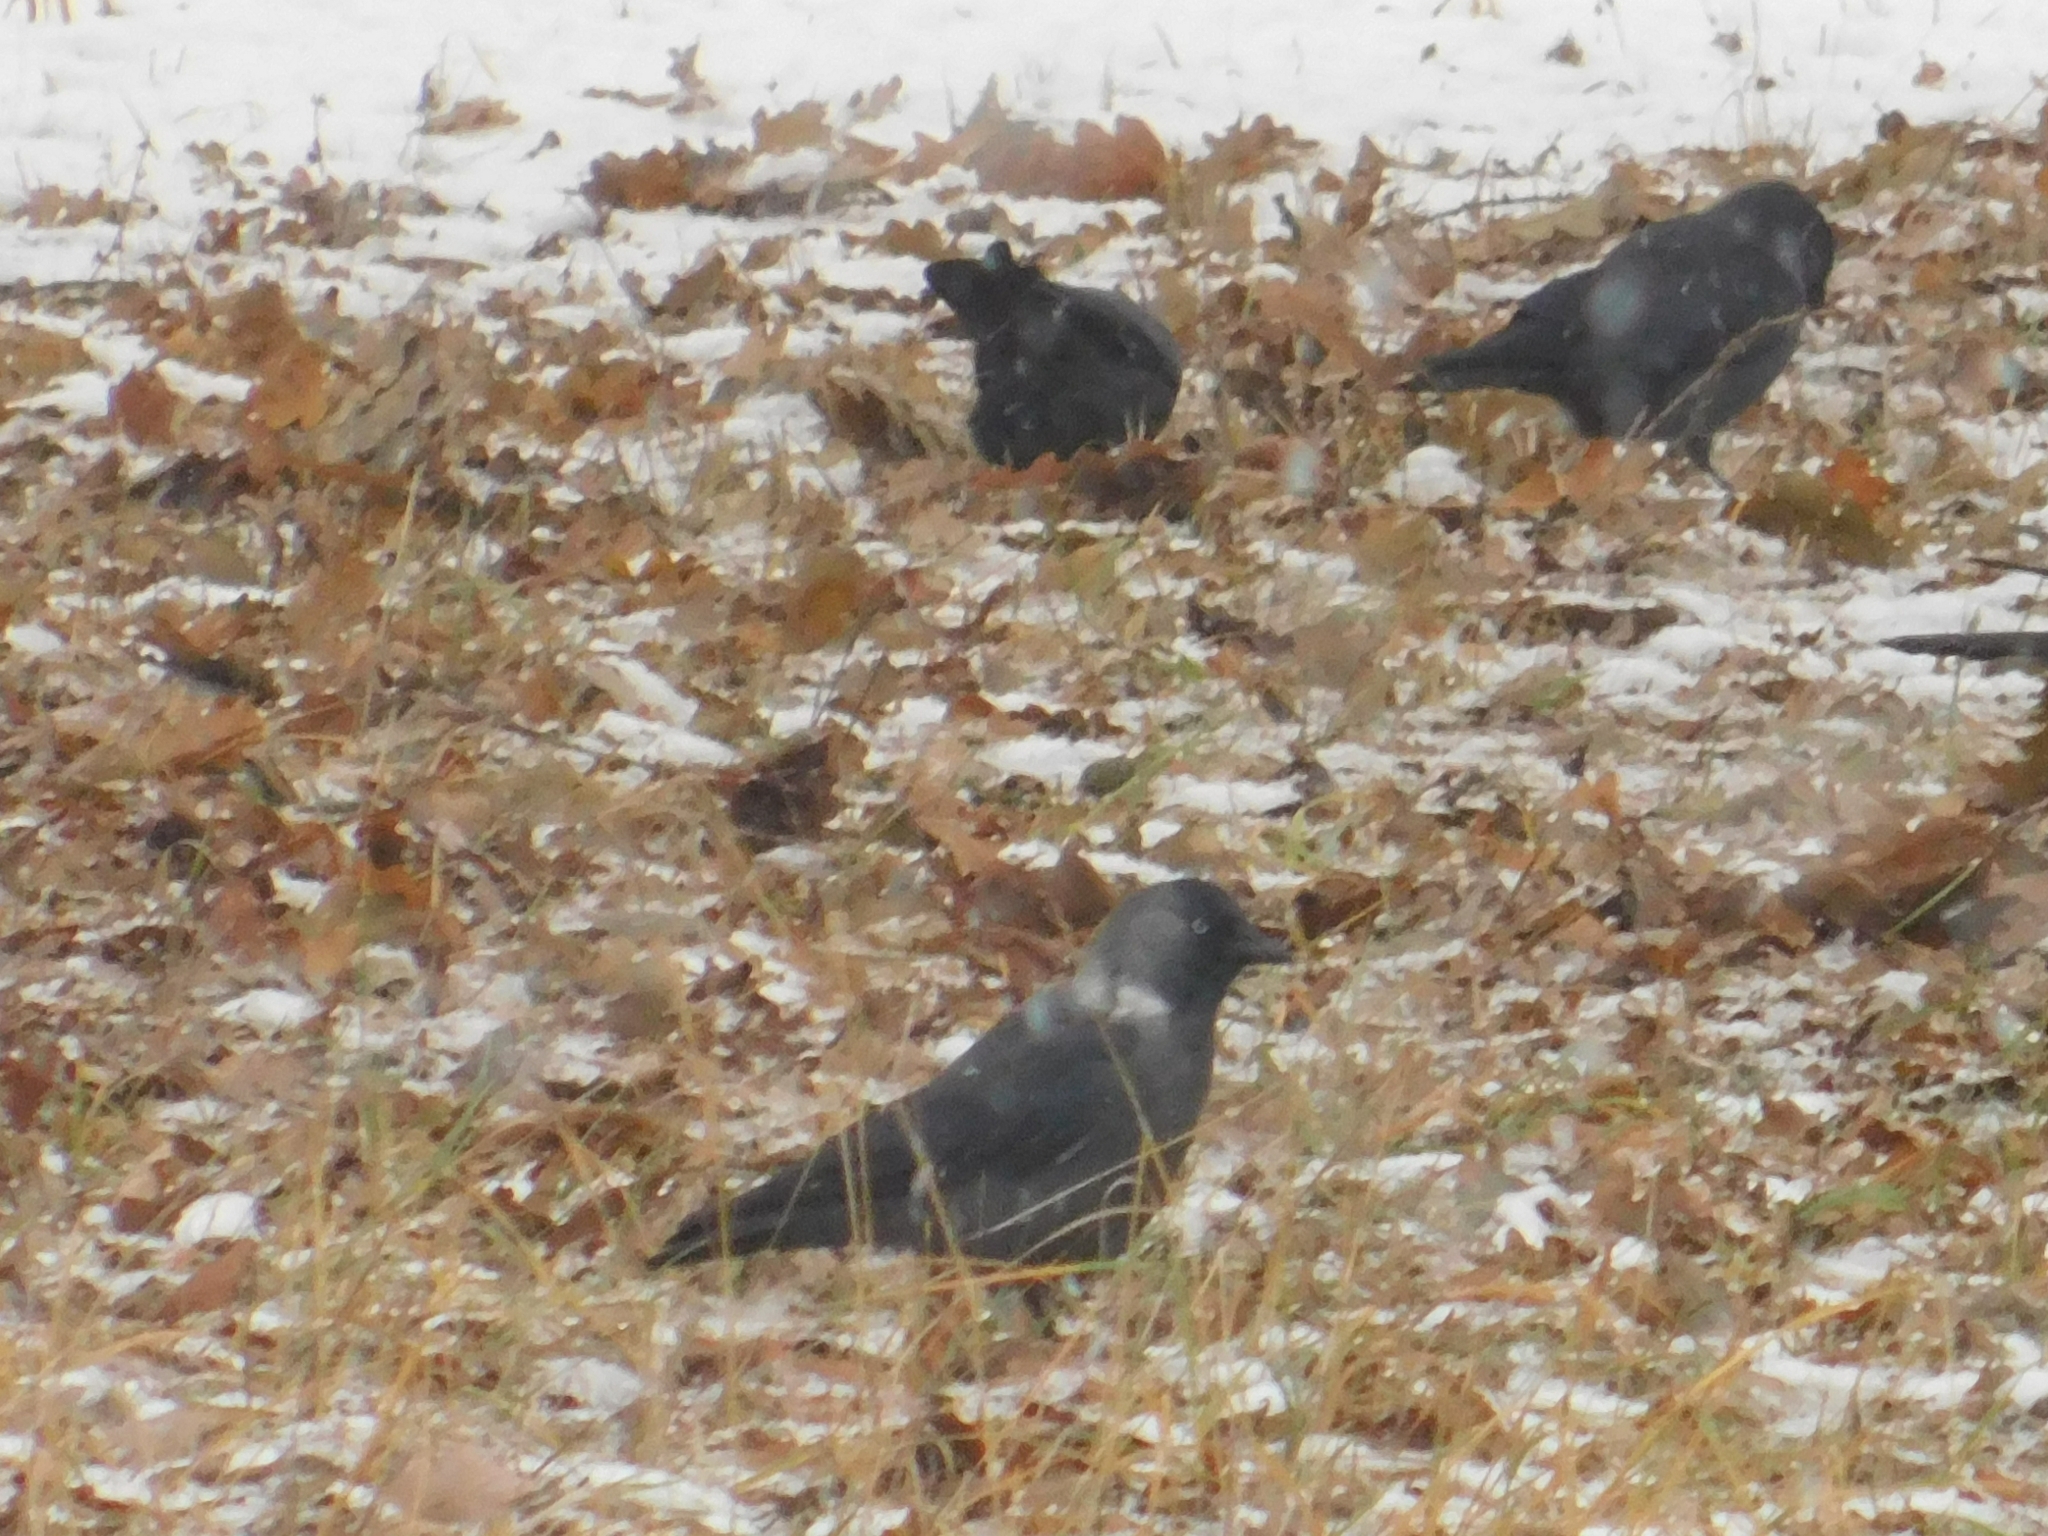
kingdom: Animalia
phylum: Chordata
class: Aves
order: Passeriformes
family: Corvidae
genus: Coloeus
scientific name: Coloeus monedula
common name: Western jackdaw
